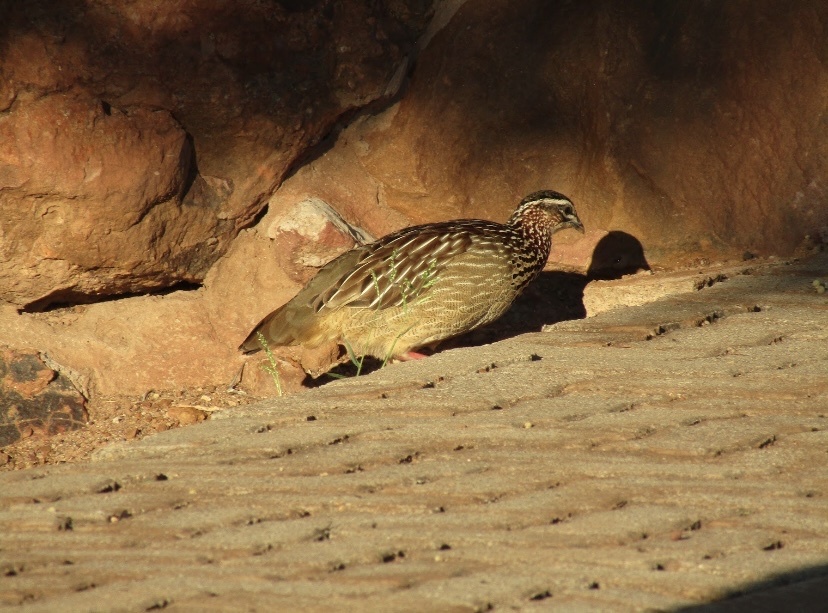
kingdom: Animalia
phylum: Chordata
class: Aves
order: Galliformes
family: Phasianidae
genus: Ortygornis
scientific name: Ortygornis sephaena
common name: Crested francolin
